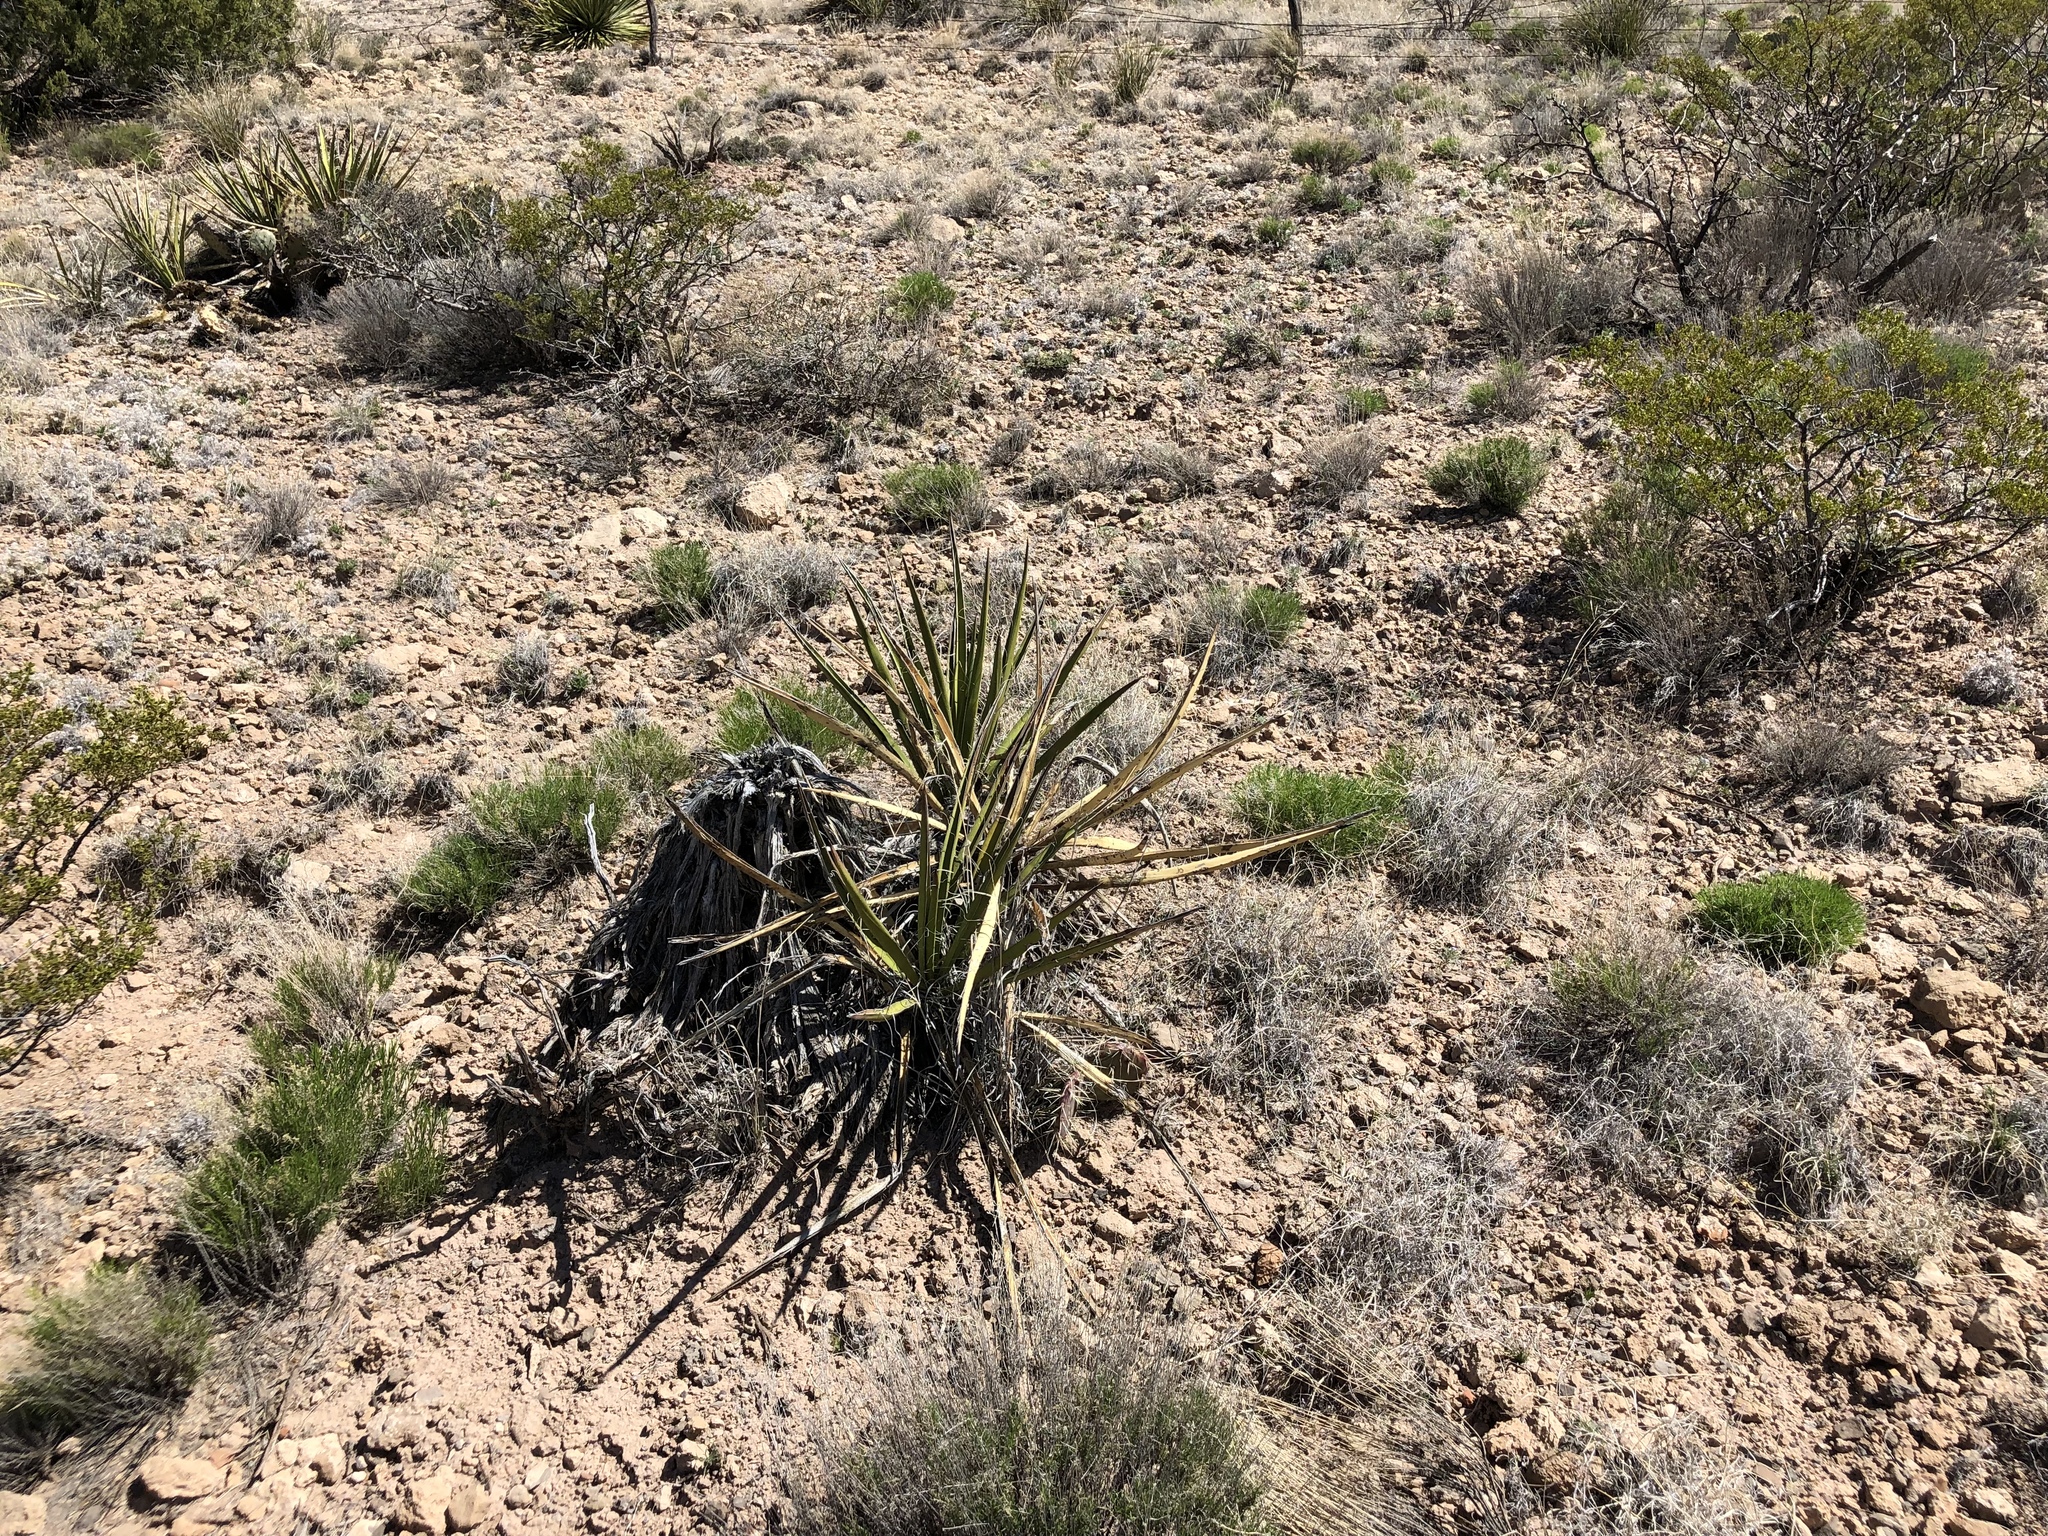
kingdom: Plantae
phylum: Tracheophyta
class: Liliopsida
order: Asparagales
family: Asparagaceae
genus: Yucca
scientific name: Yucca baccata
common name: Banana yucca
